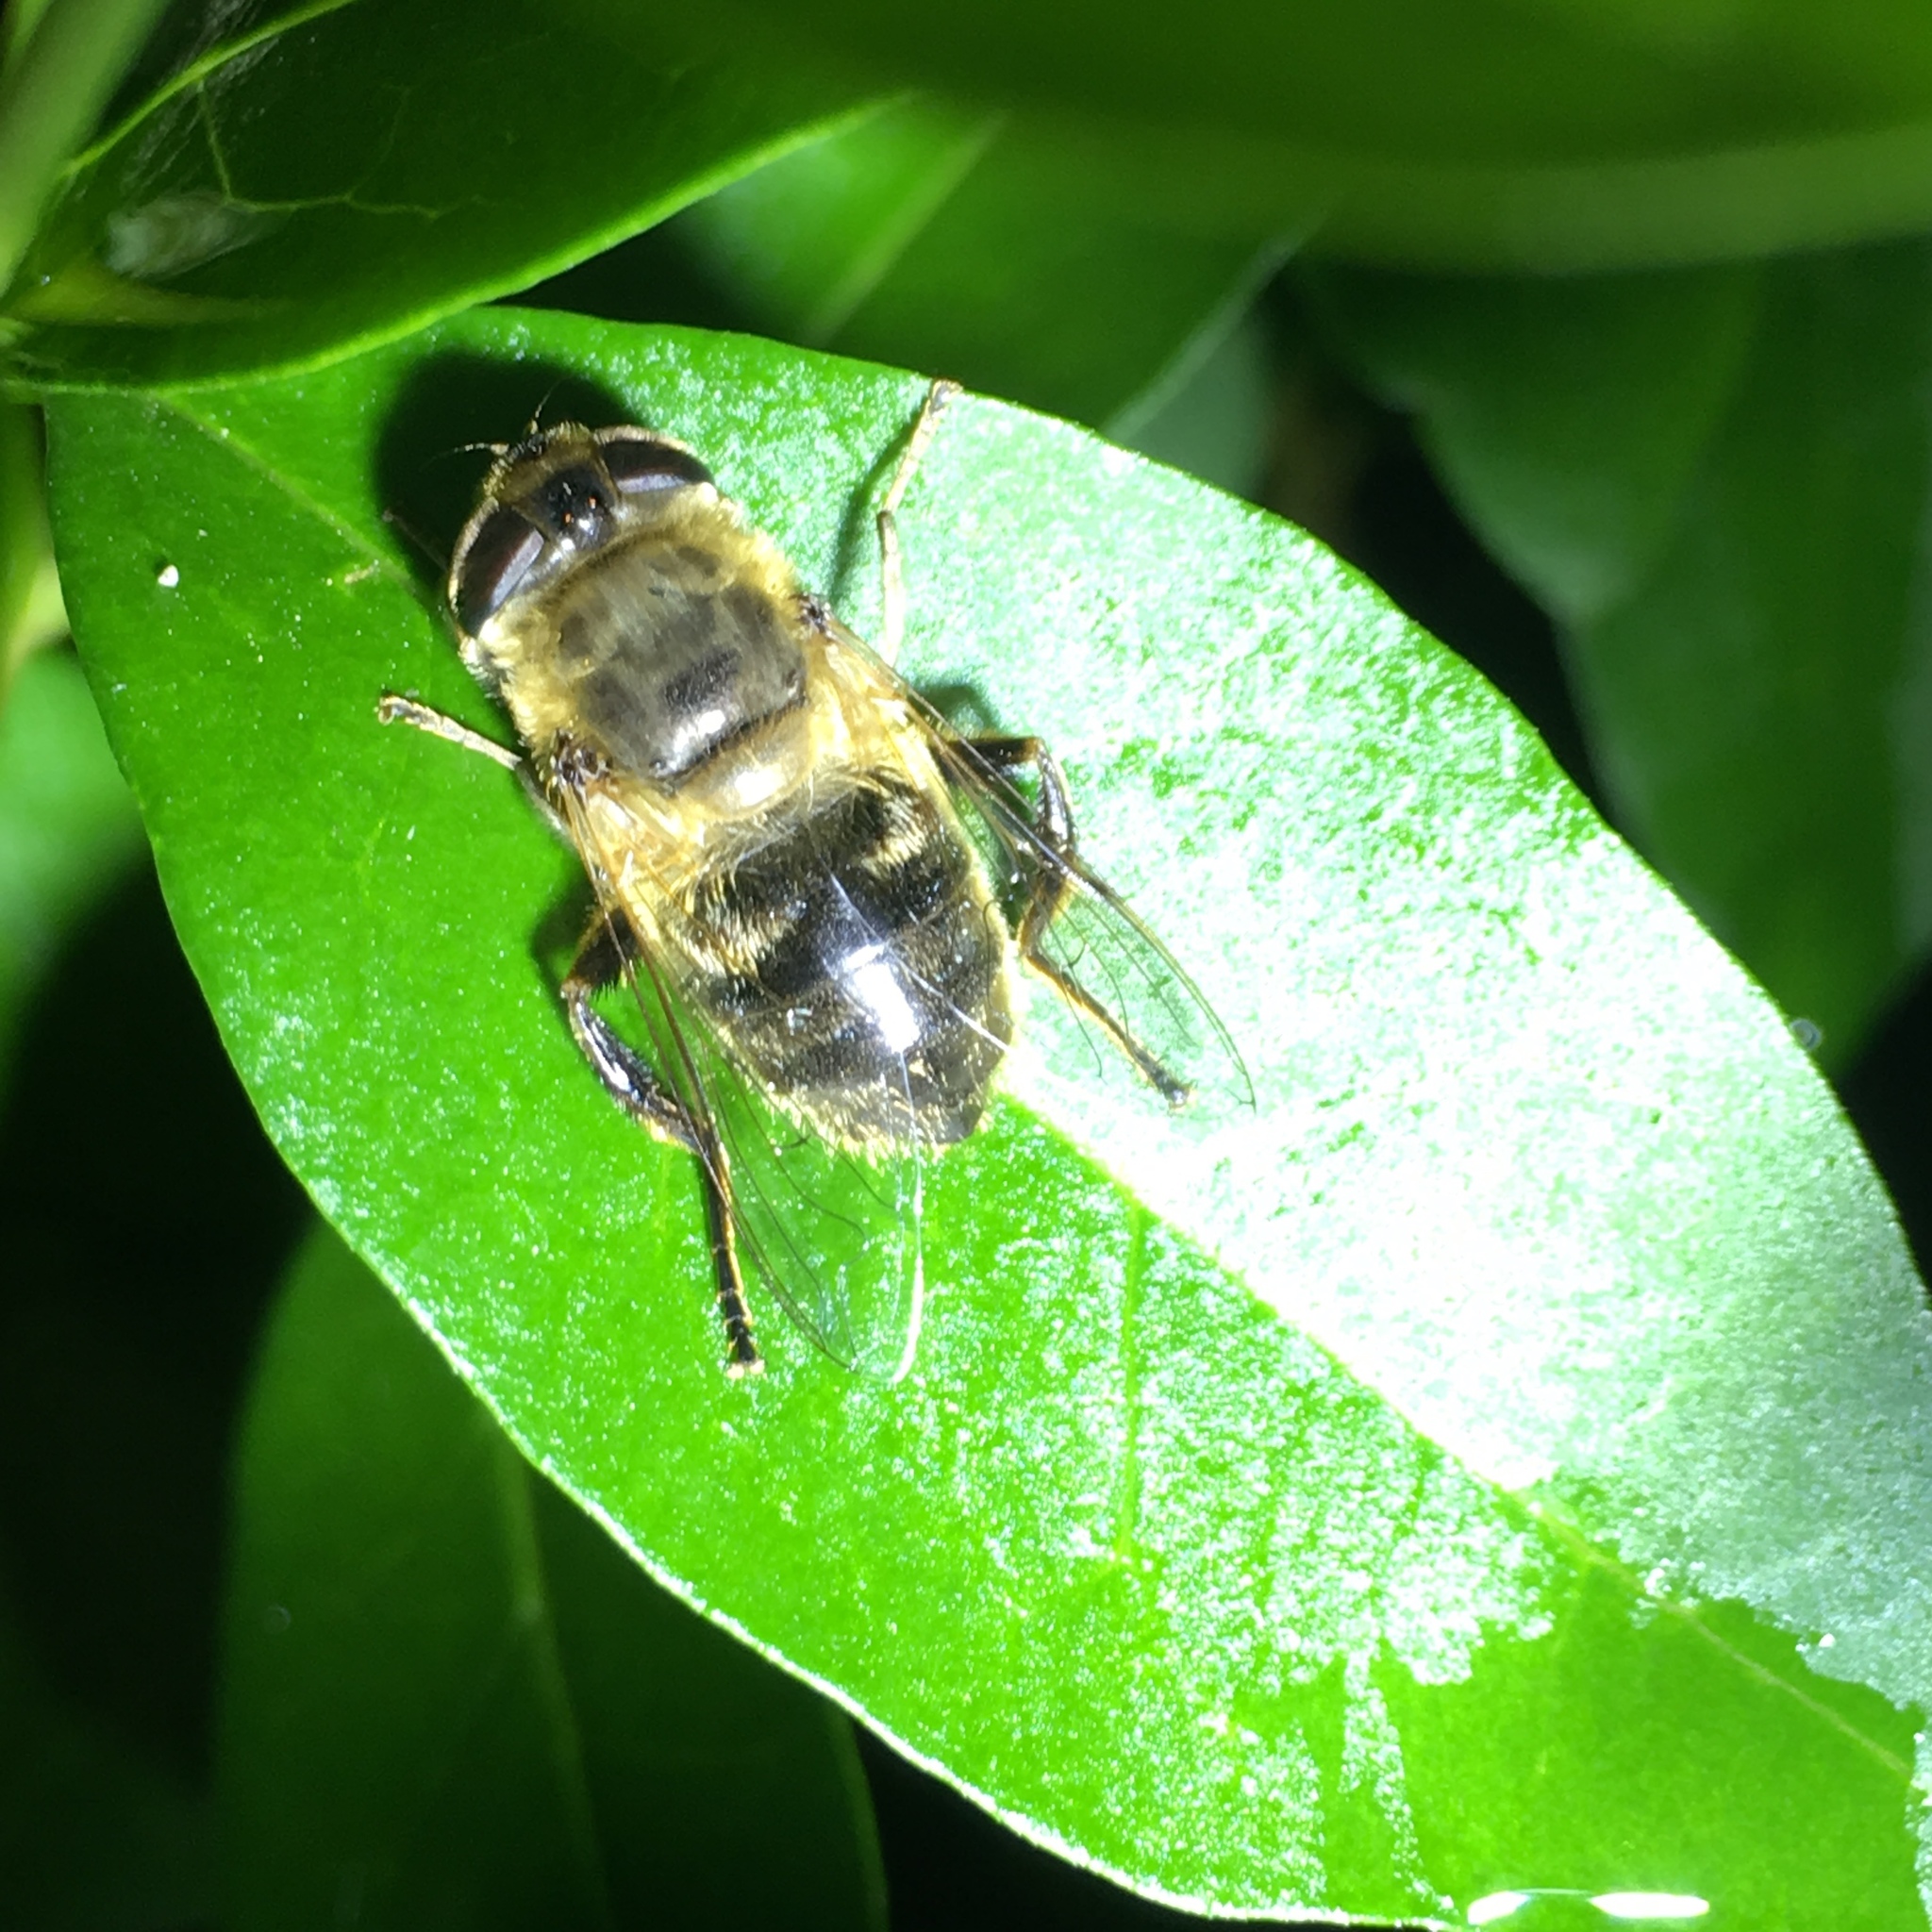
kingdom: Animalia
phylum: Arthropoda
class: Insecta
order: Diptera
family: Syrphidae
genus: Eristalis
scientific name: Eristalis tenax
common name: Drone fly
